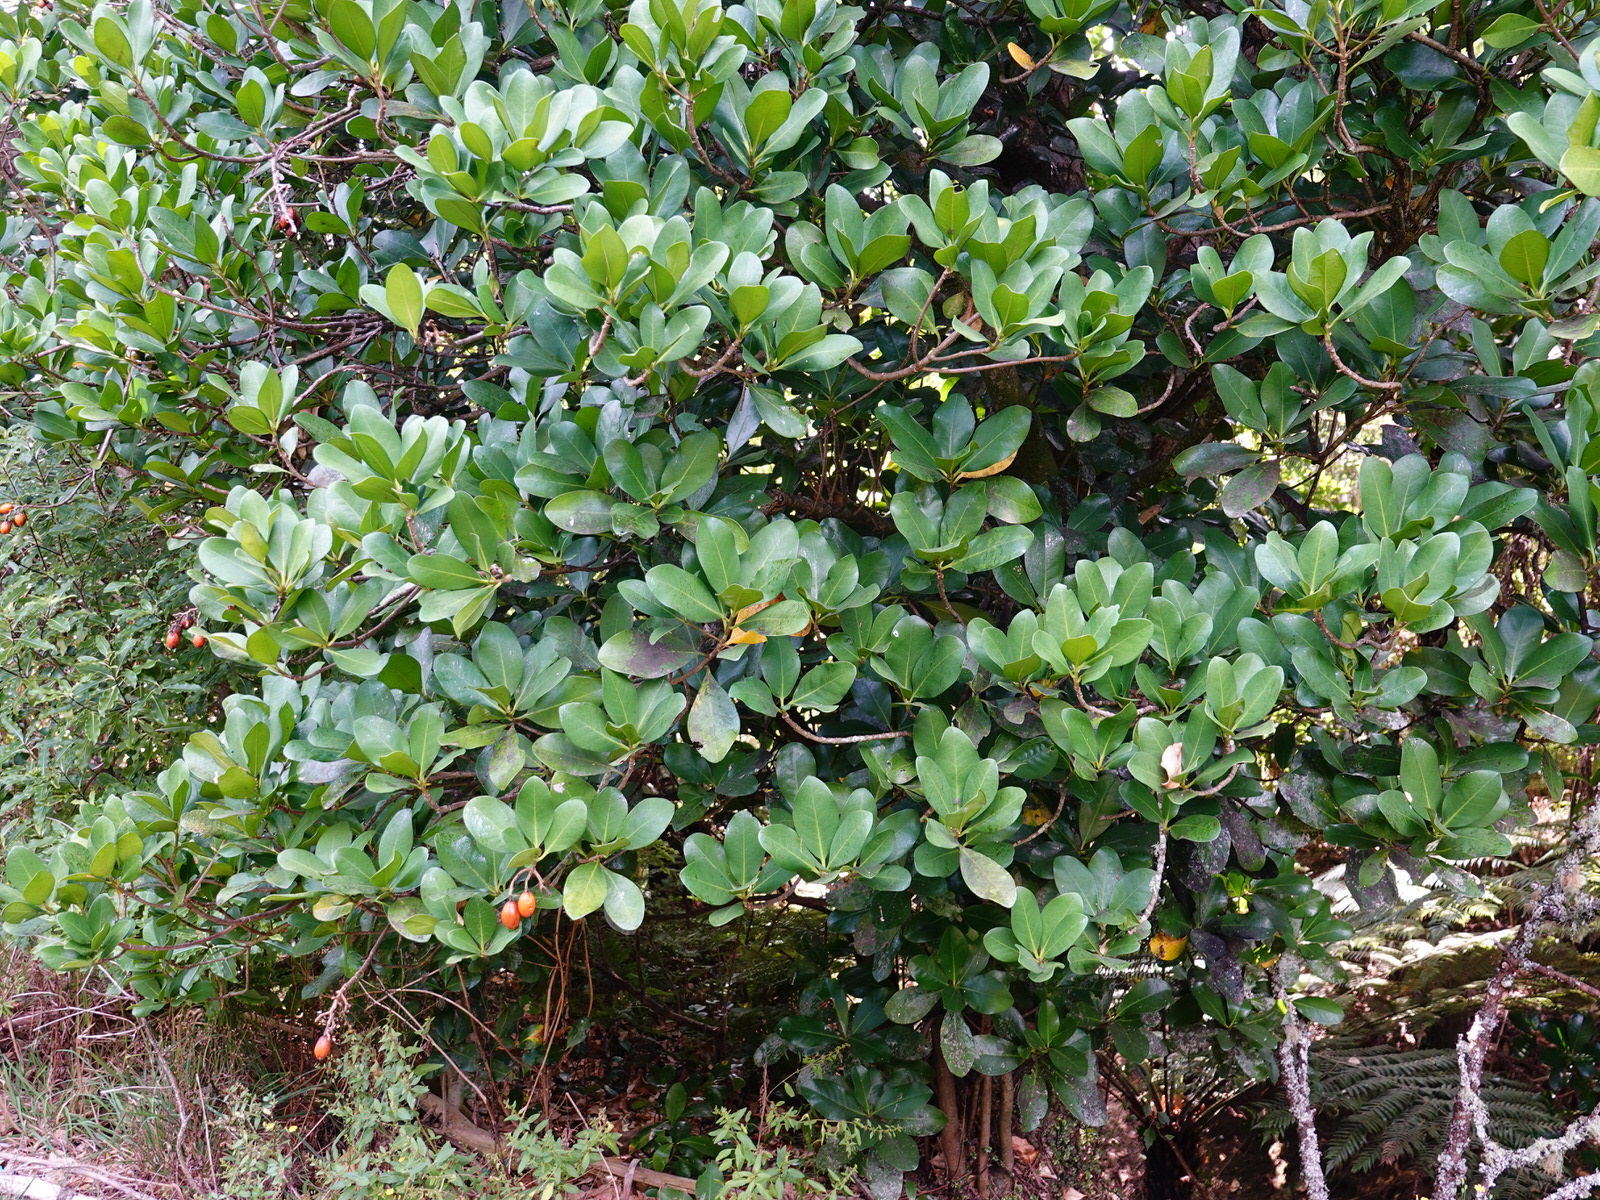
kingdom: Plantae
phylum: Tracheophyta
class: Magnoliopsida
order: Cucurbitales
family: Corynocarpaceae
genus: Corynocarpus
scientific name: Corynocarpus laevigatus
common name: New zealand laurel
